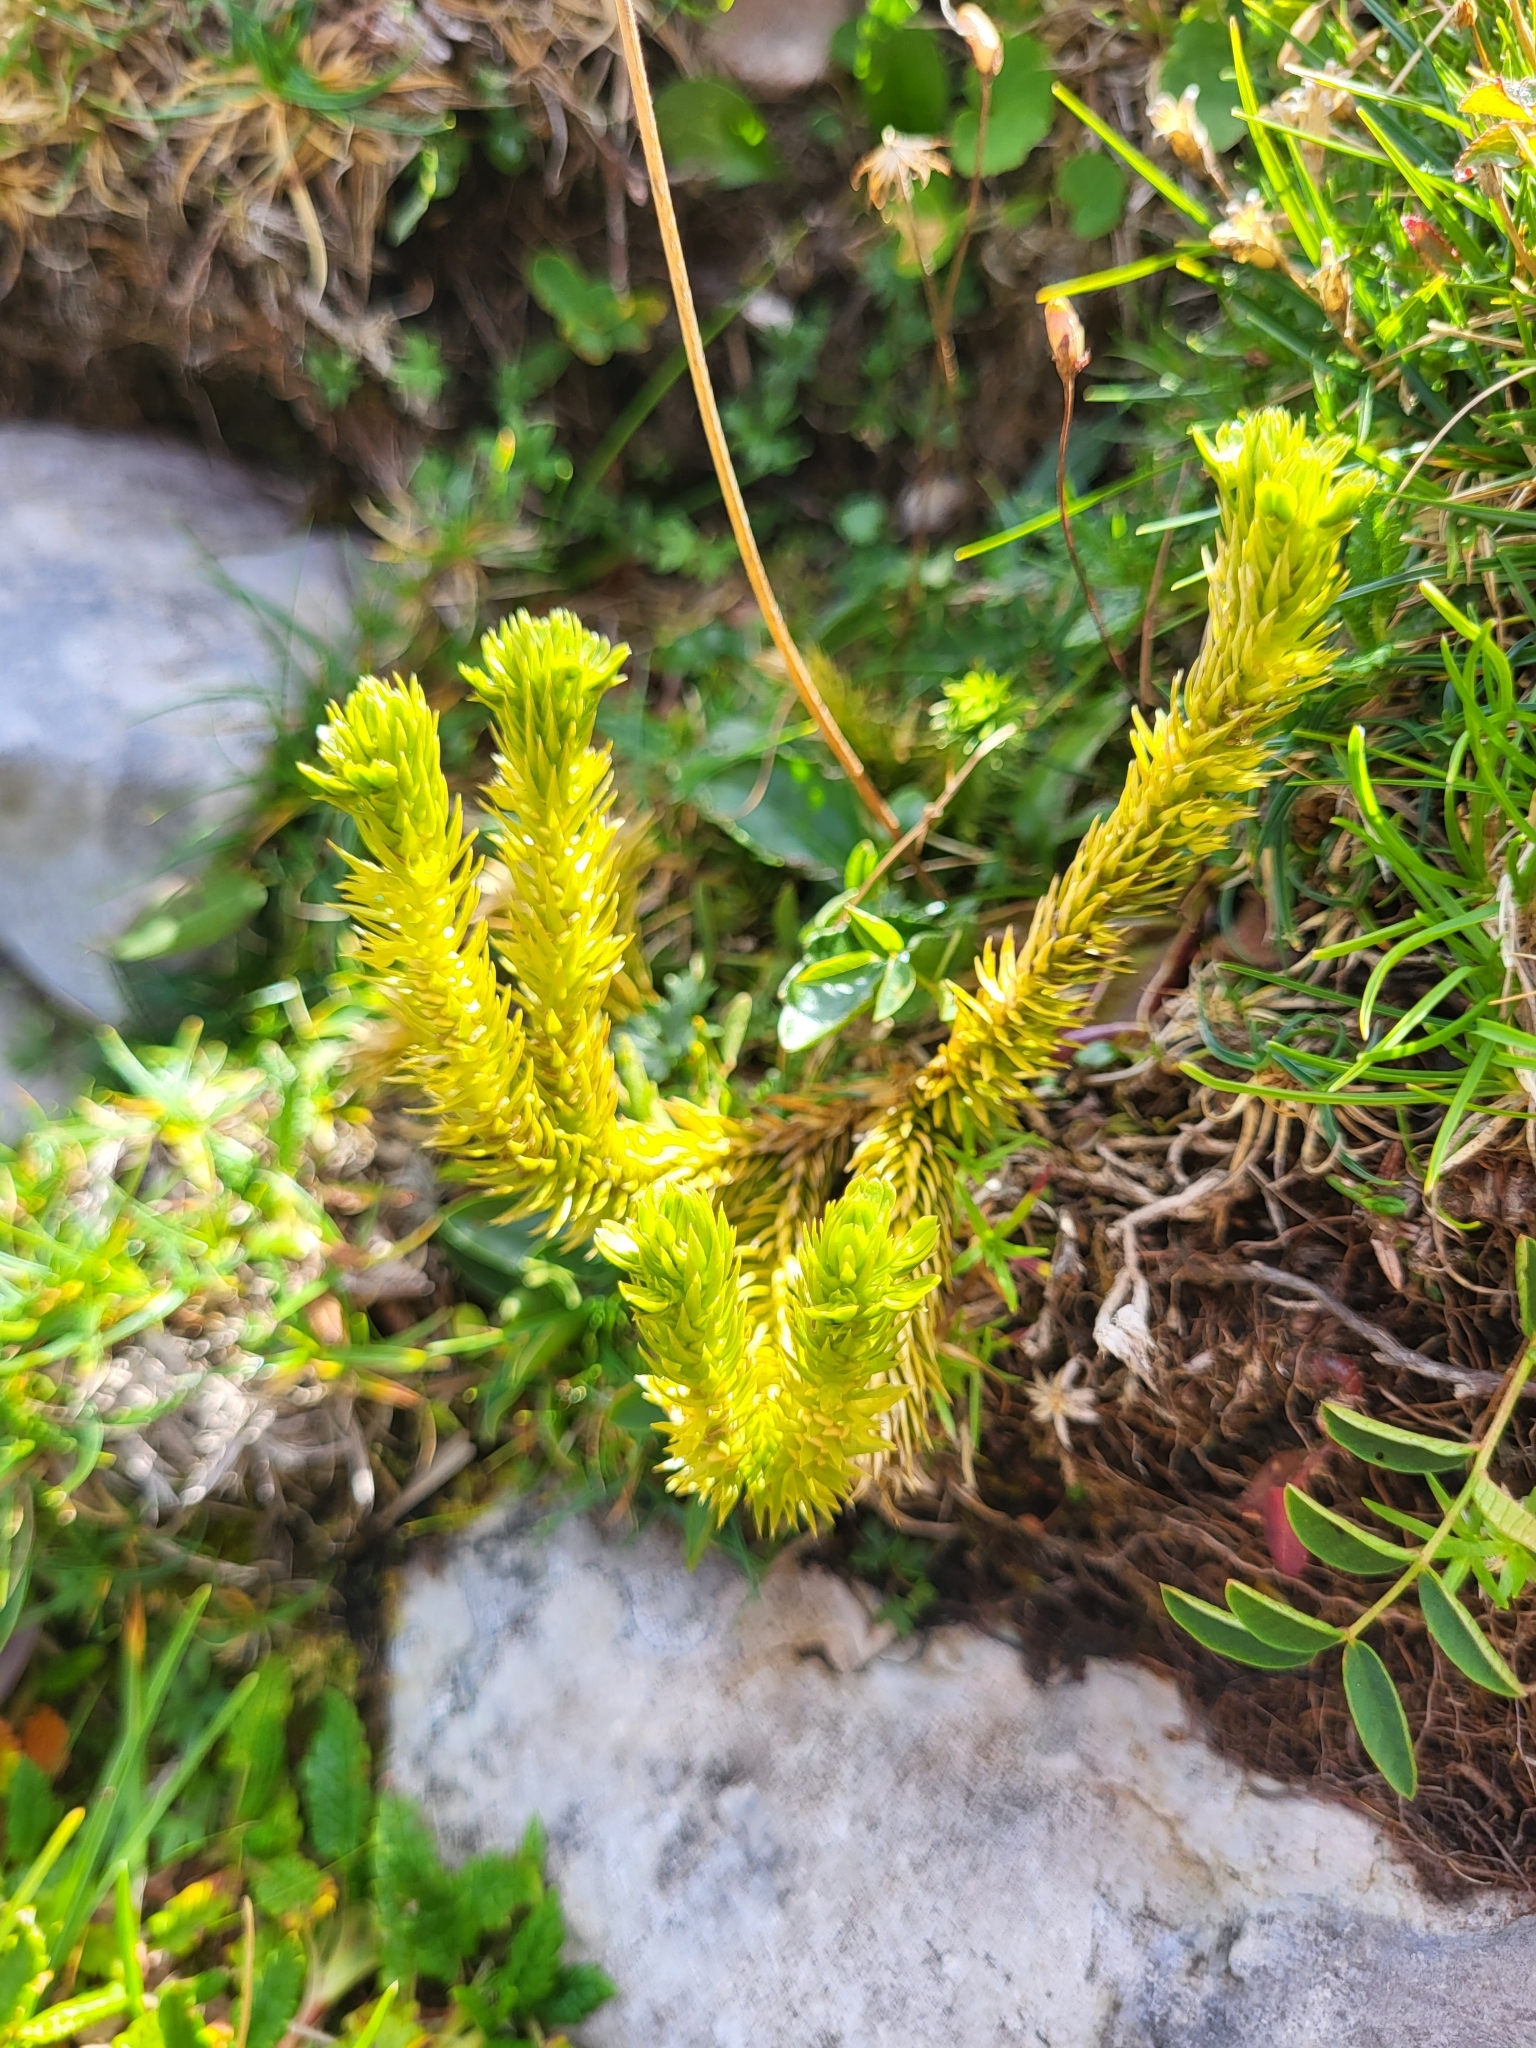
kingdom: Plantae
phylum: Tracheophyta
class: Lycopodiopsida
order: Lycopodiales
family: Lycopodiaceae
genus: Huperzia
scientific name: Huperzia selago
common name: Northern firmoss
